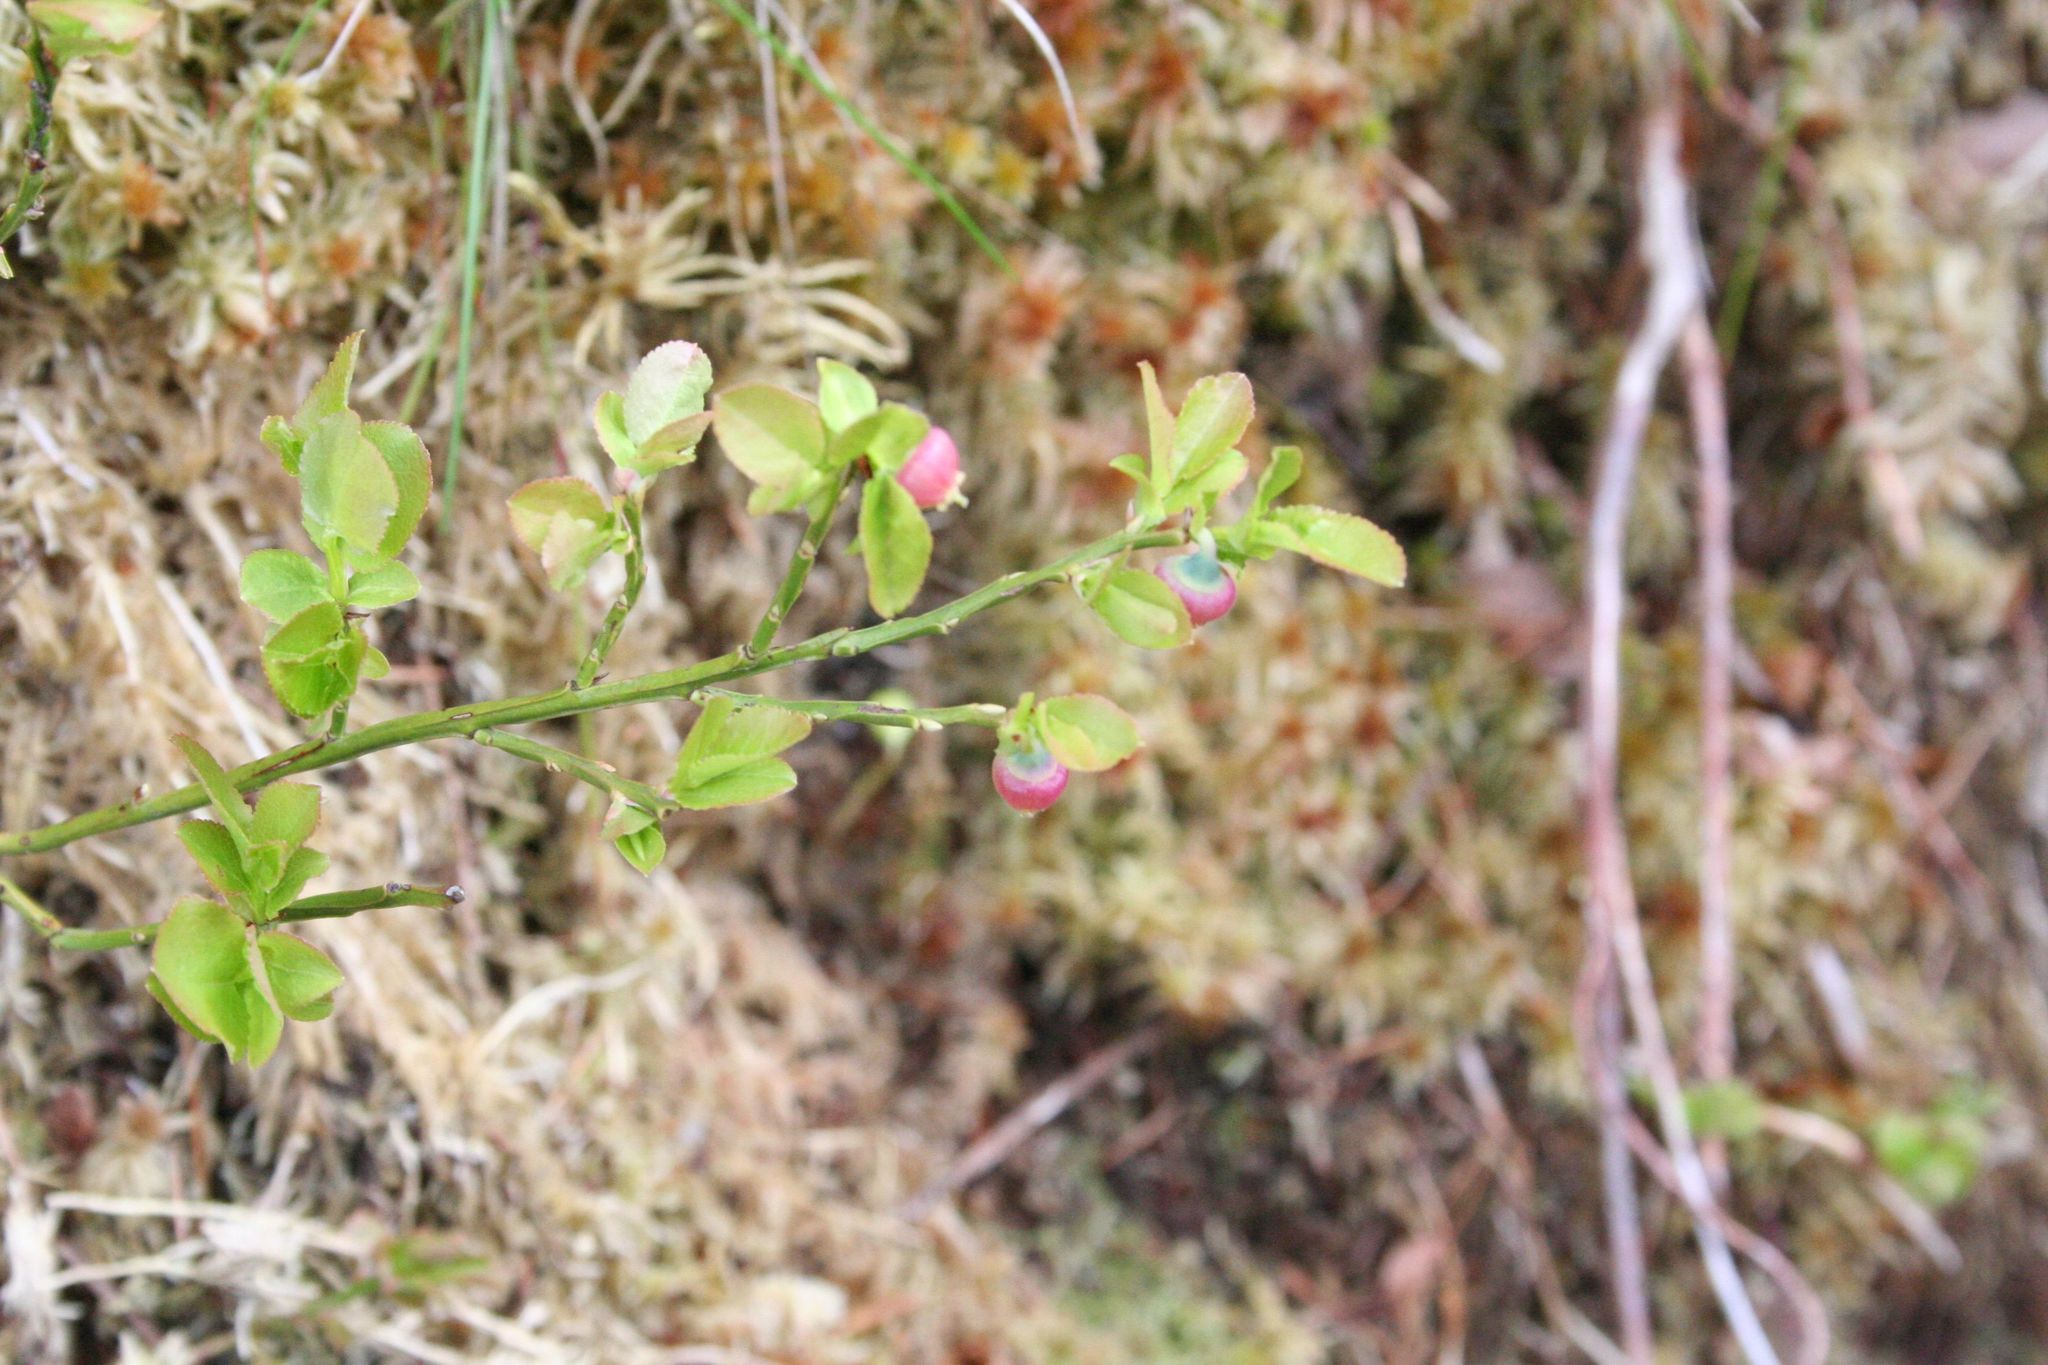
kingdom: Plantae
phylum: Tracheophyta
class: Magnoliopsida
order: Ericales
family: Ericaceae
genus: Vaccinium
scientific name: Vaccinium myrtillus
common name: Bilberry
